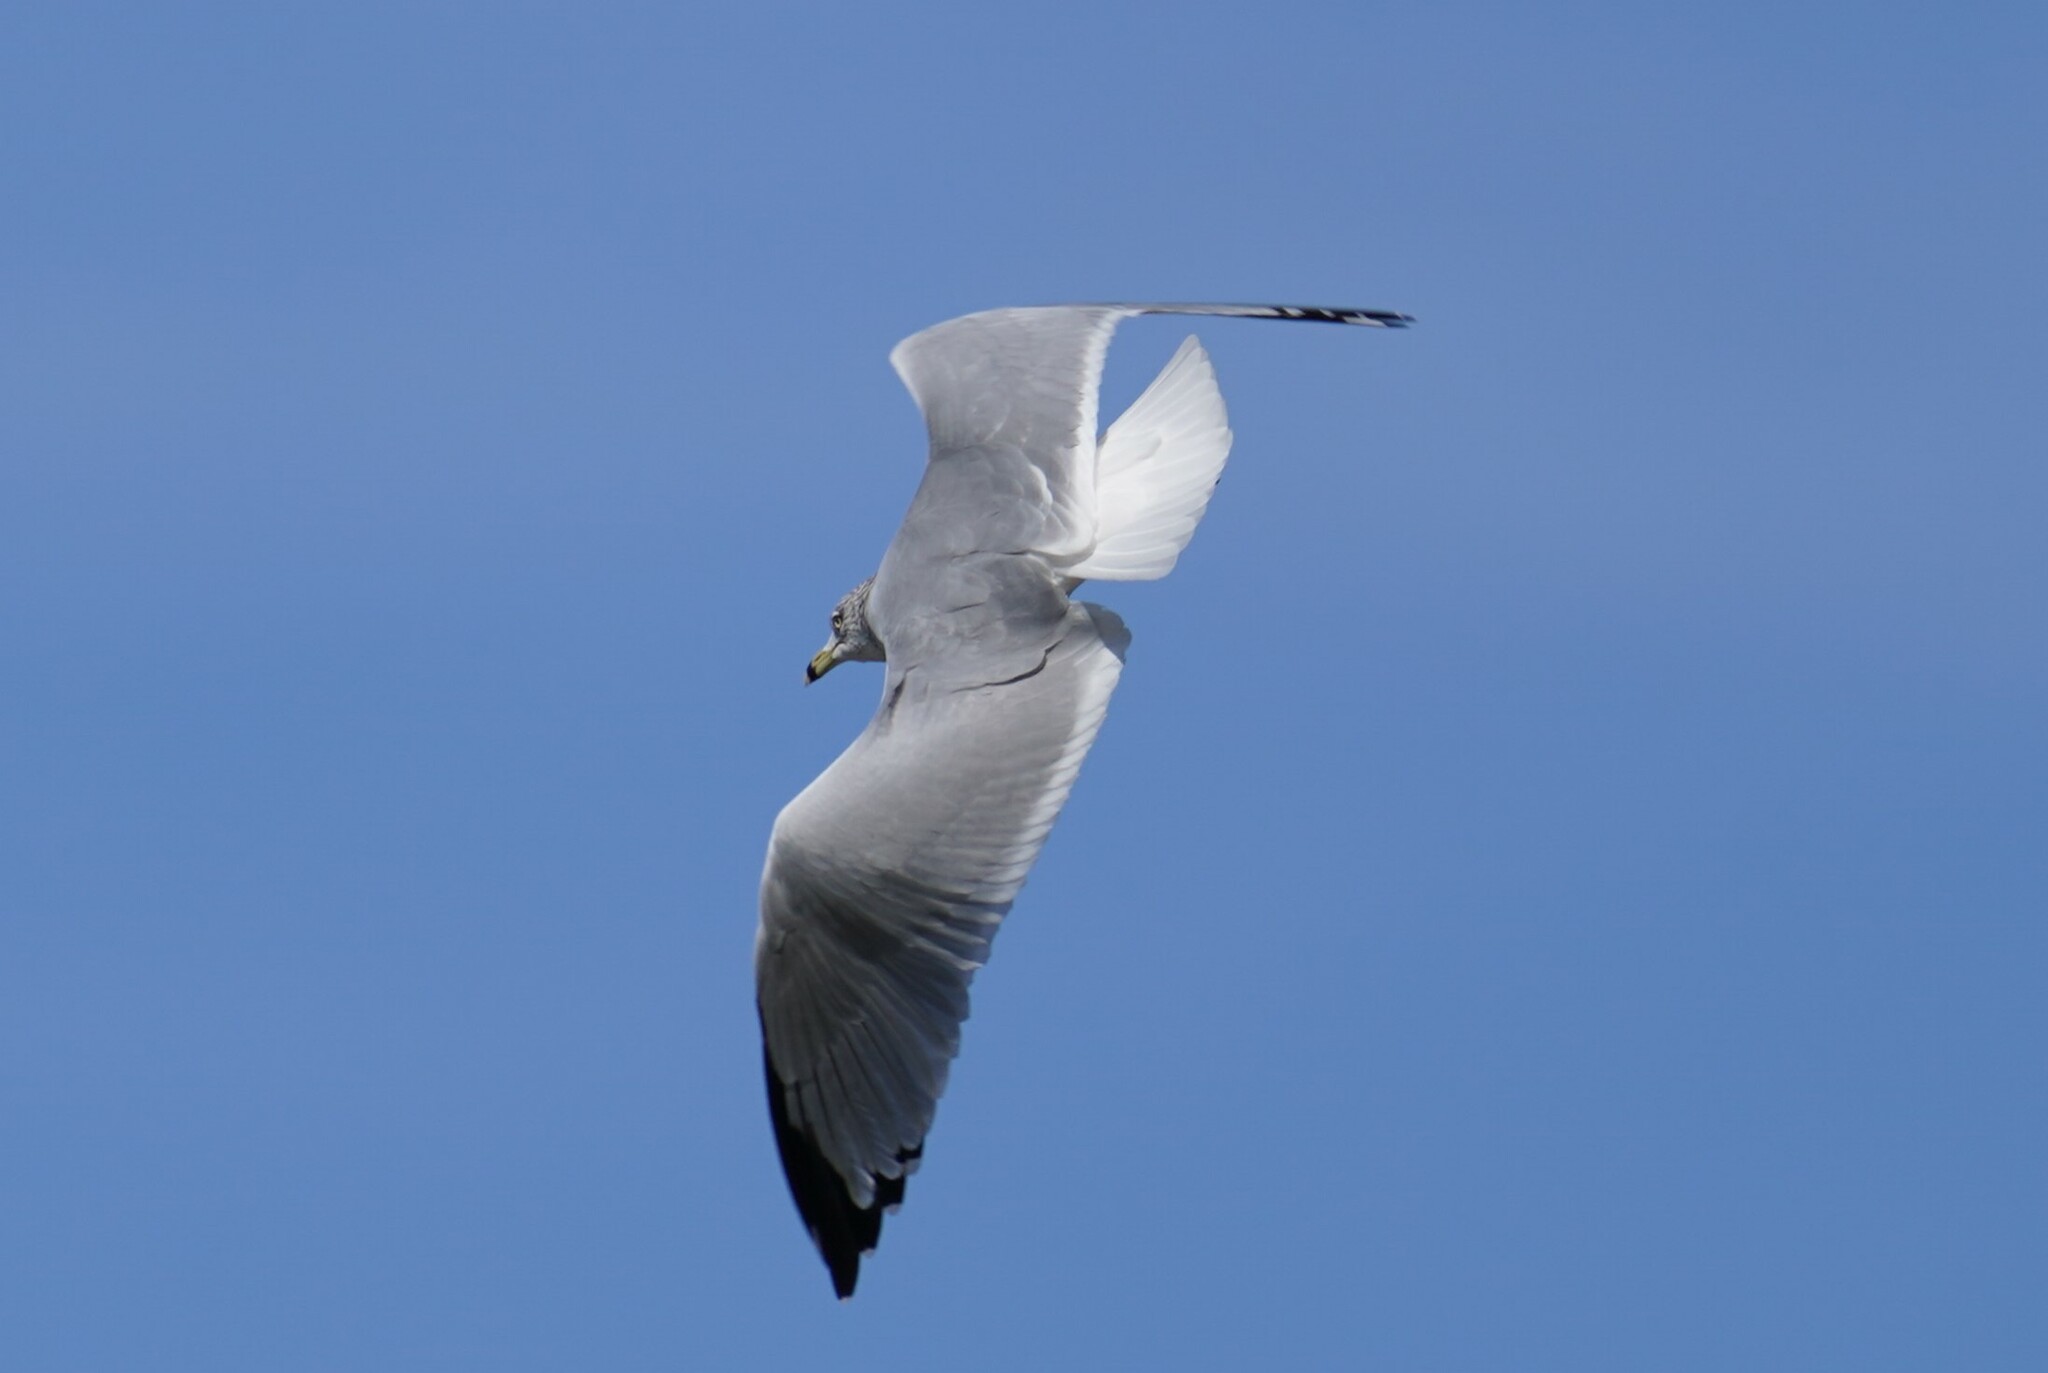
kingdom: Animalia
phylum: Chordata
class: Aves
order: Charadriiformes
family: Laridae
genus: Larus
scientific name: Larus delawarensis
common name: Ring-billed gull
